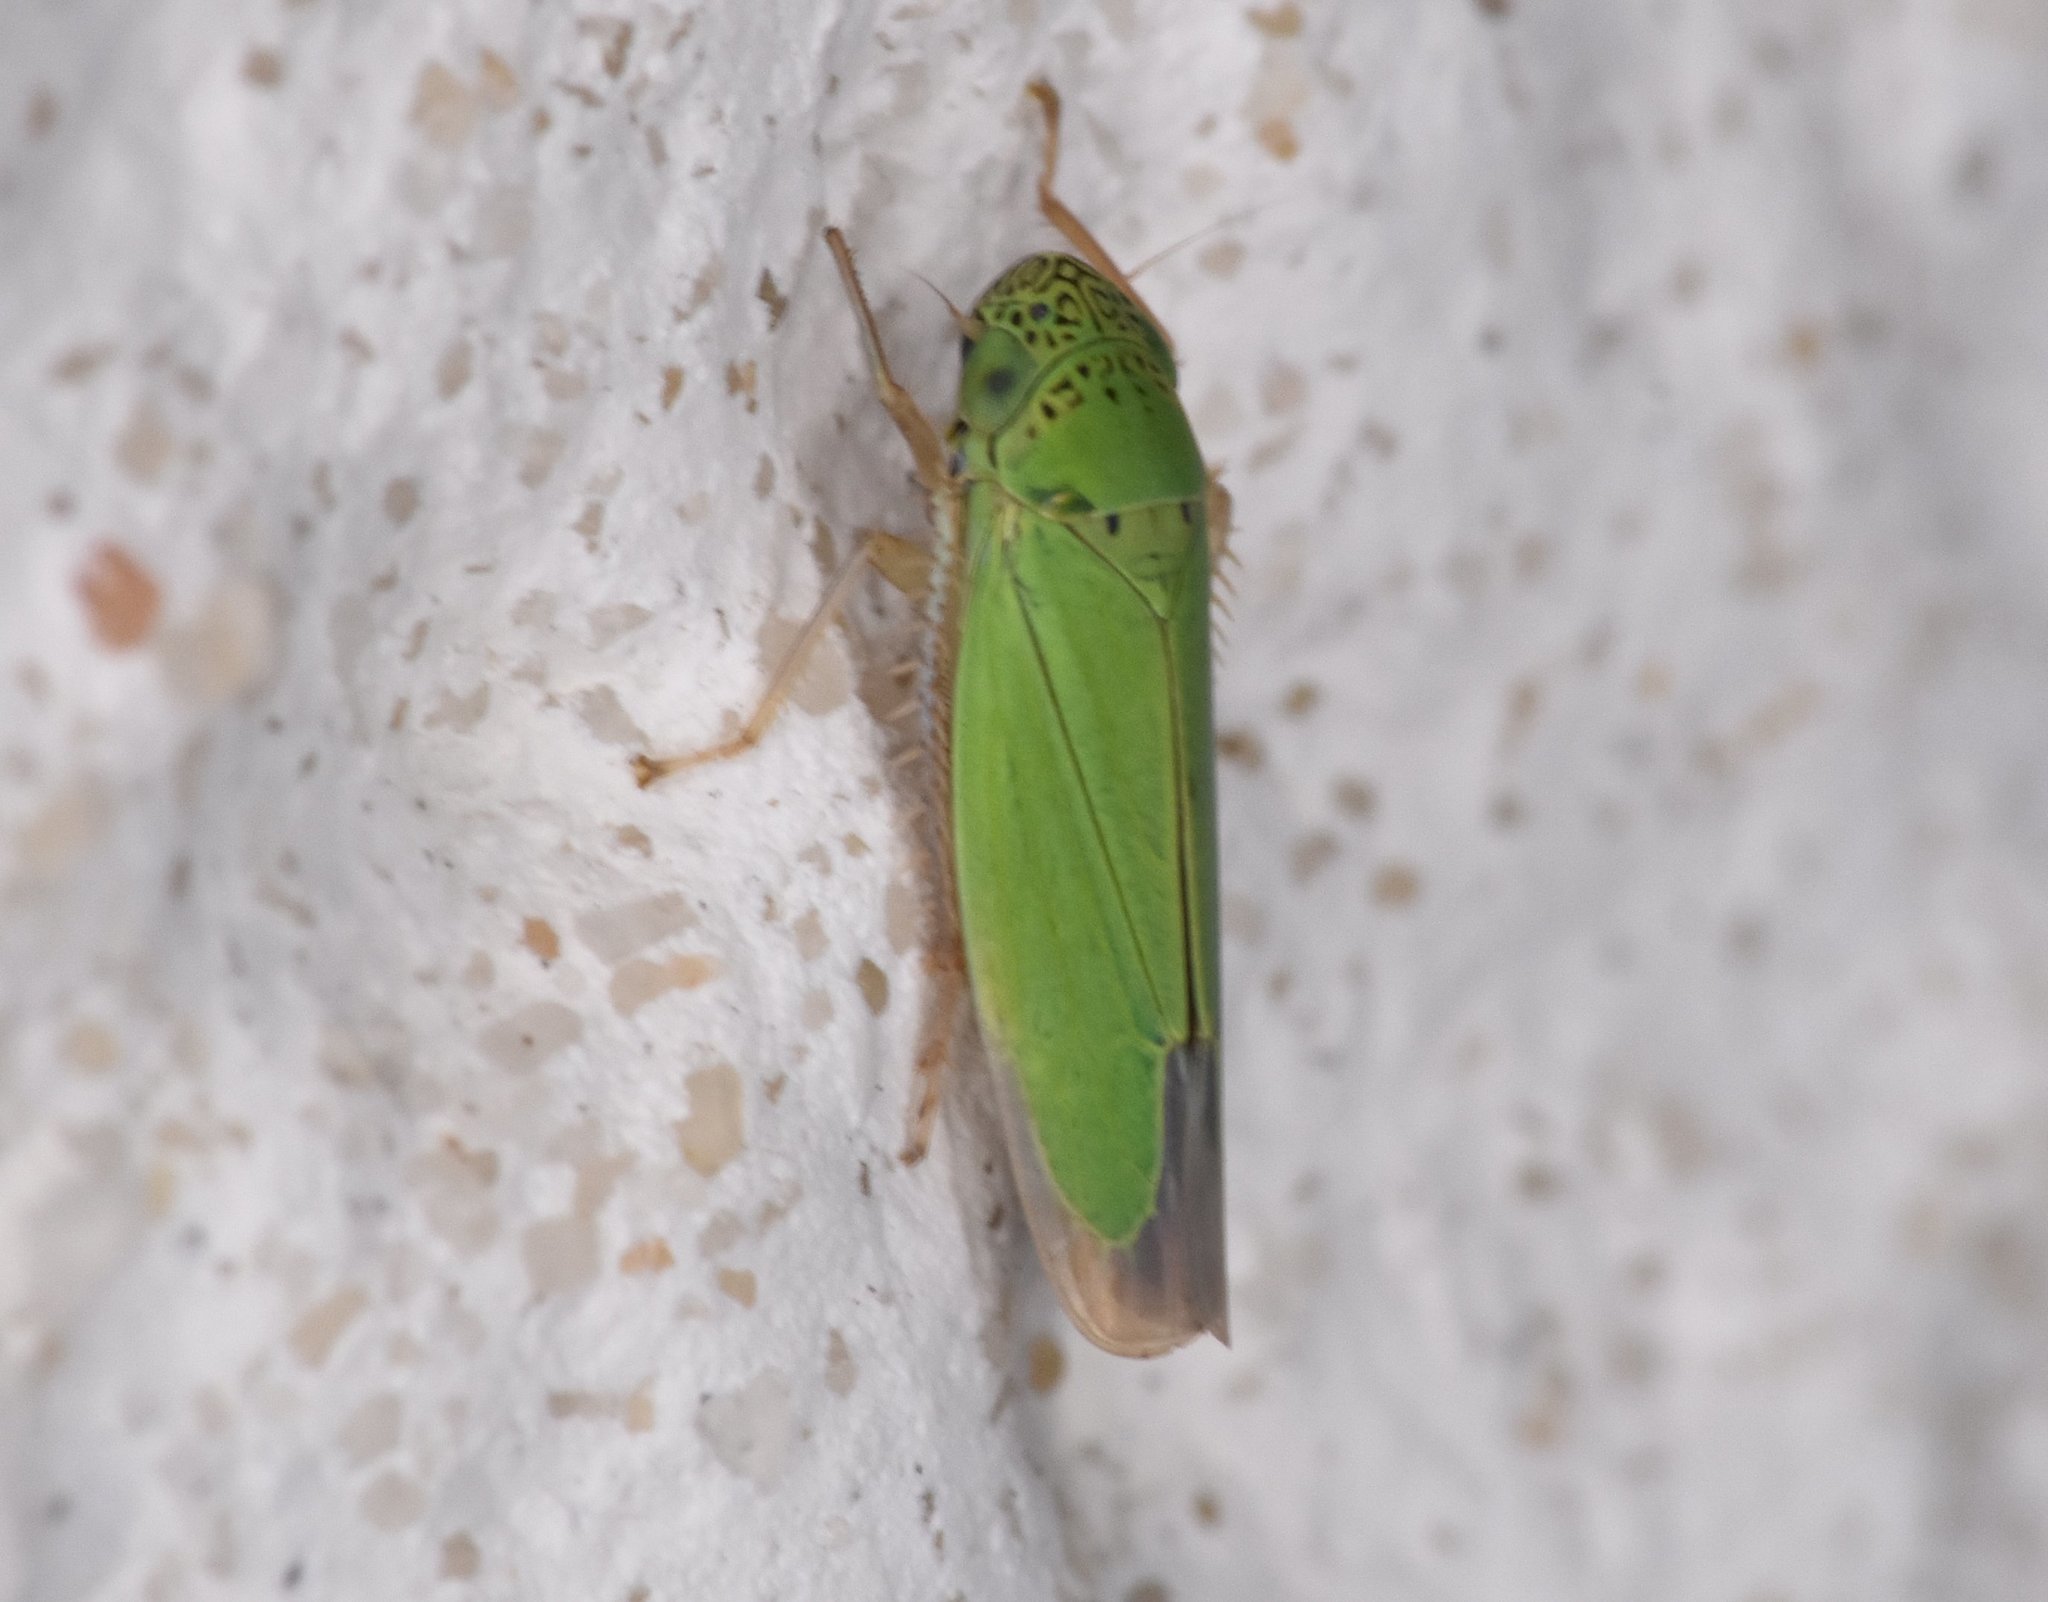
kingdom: Animalia
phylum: Arthropoda
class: Insecta
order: Hemiptera
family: Cicadellidae
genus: Hortensia
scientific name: Hortensia similis
